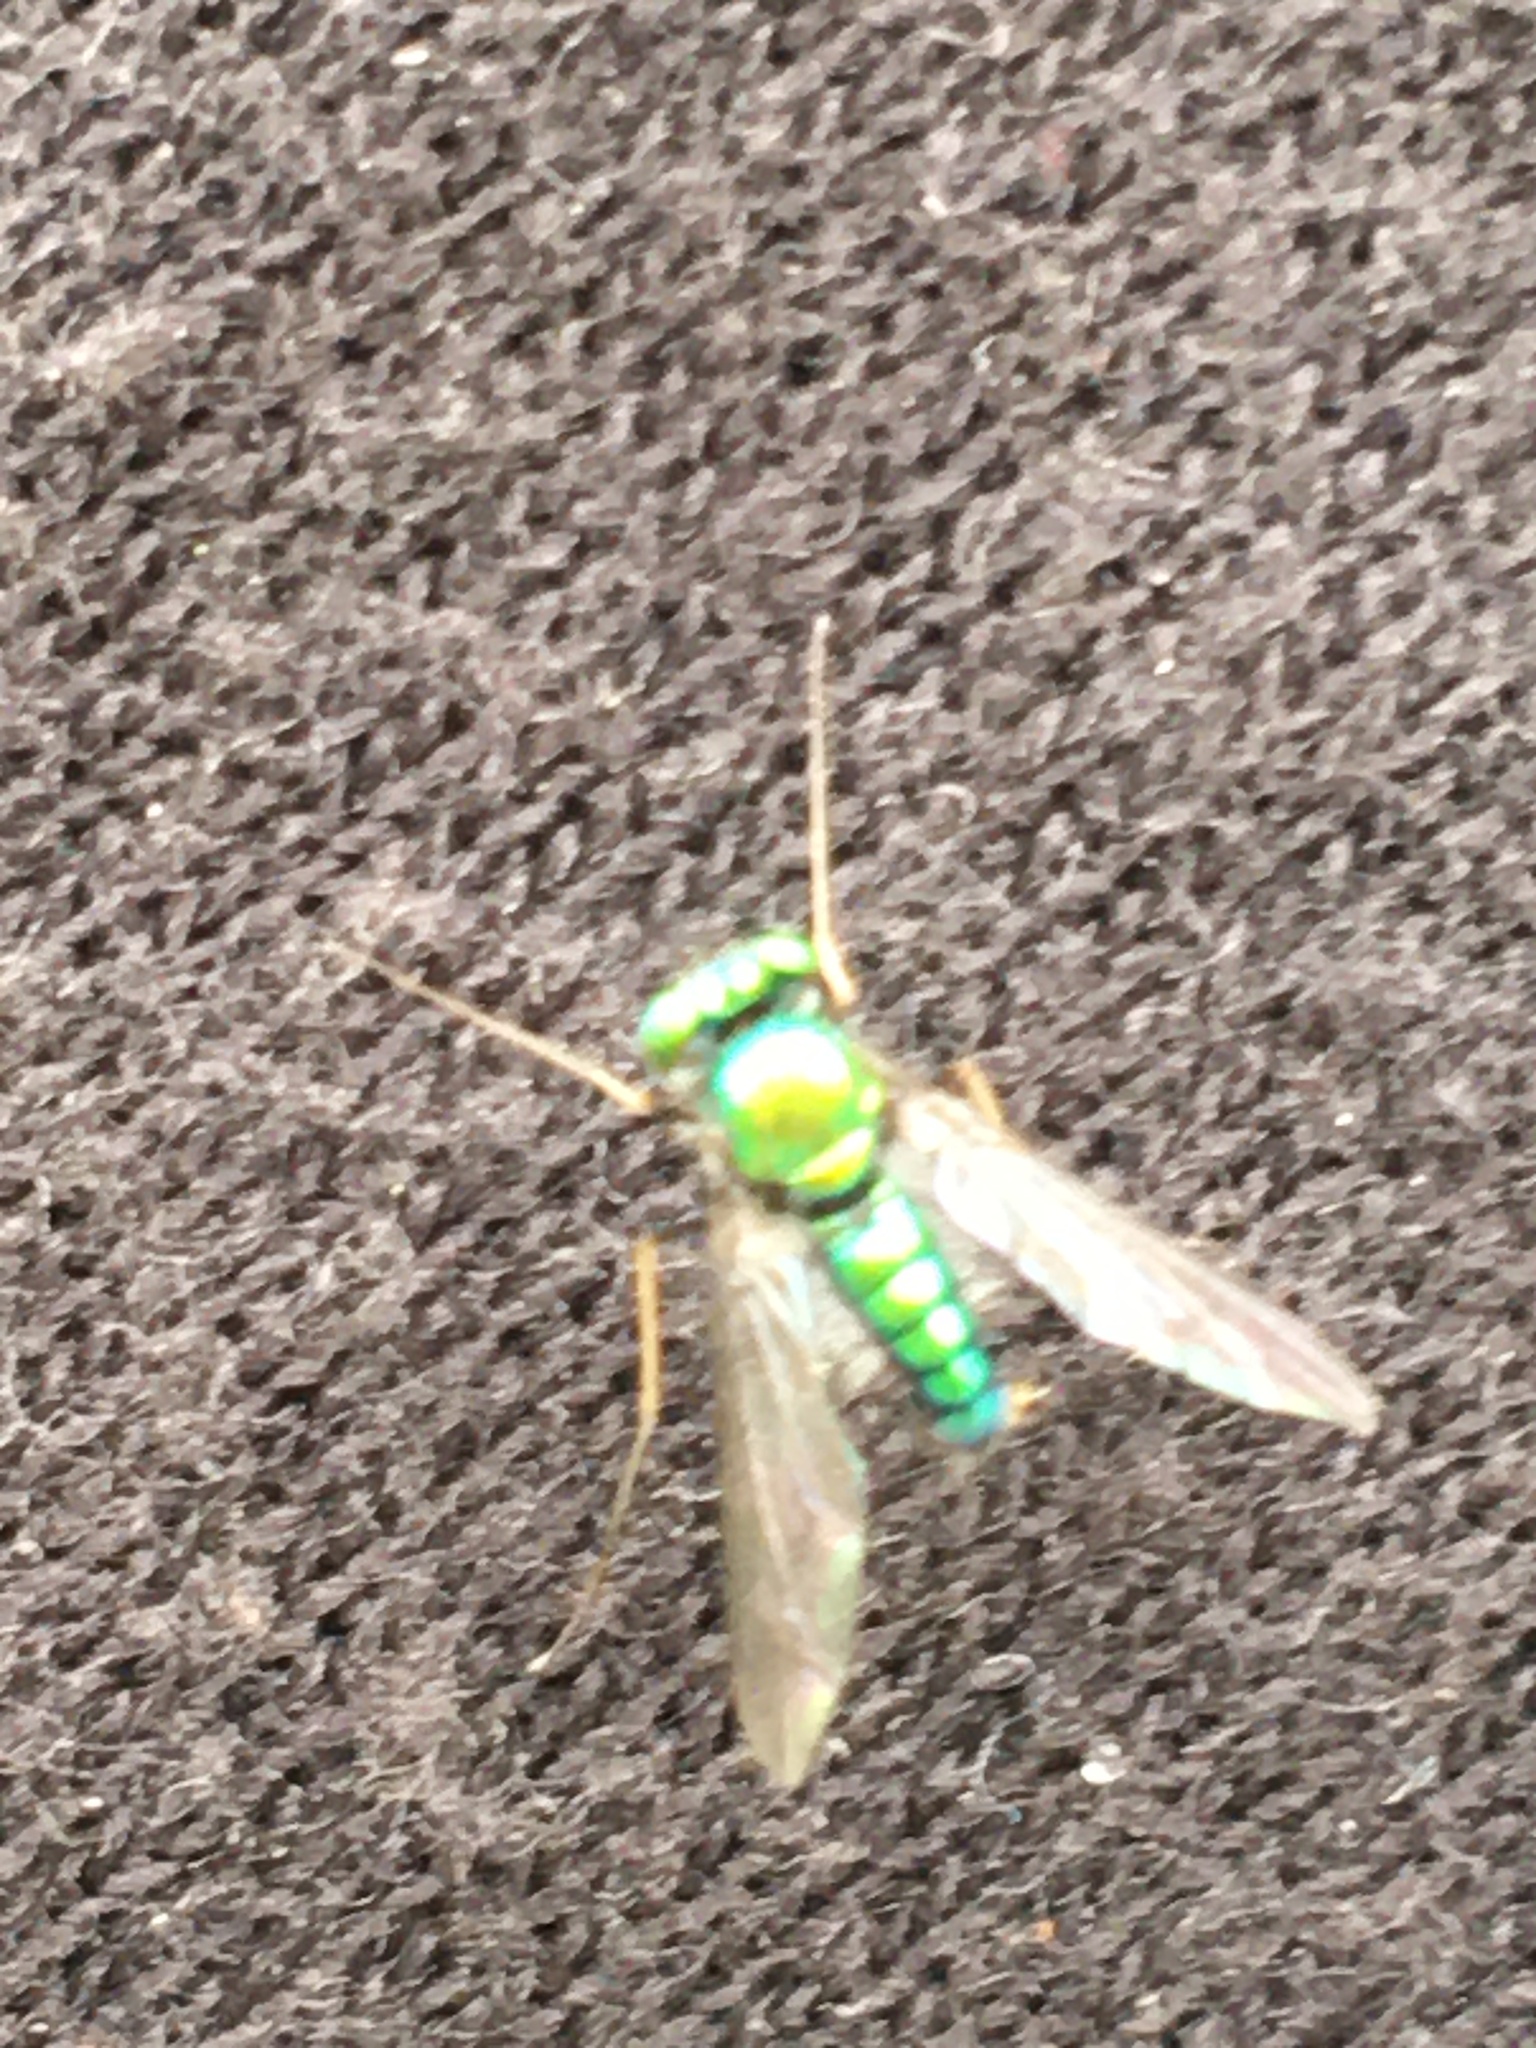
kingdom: Animalia
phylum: Arthropoda
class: Insecta
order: Diptera
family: Dolichopodidae
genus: Condylostylus
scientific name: Condylostylus comatus
